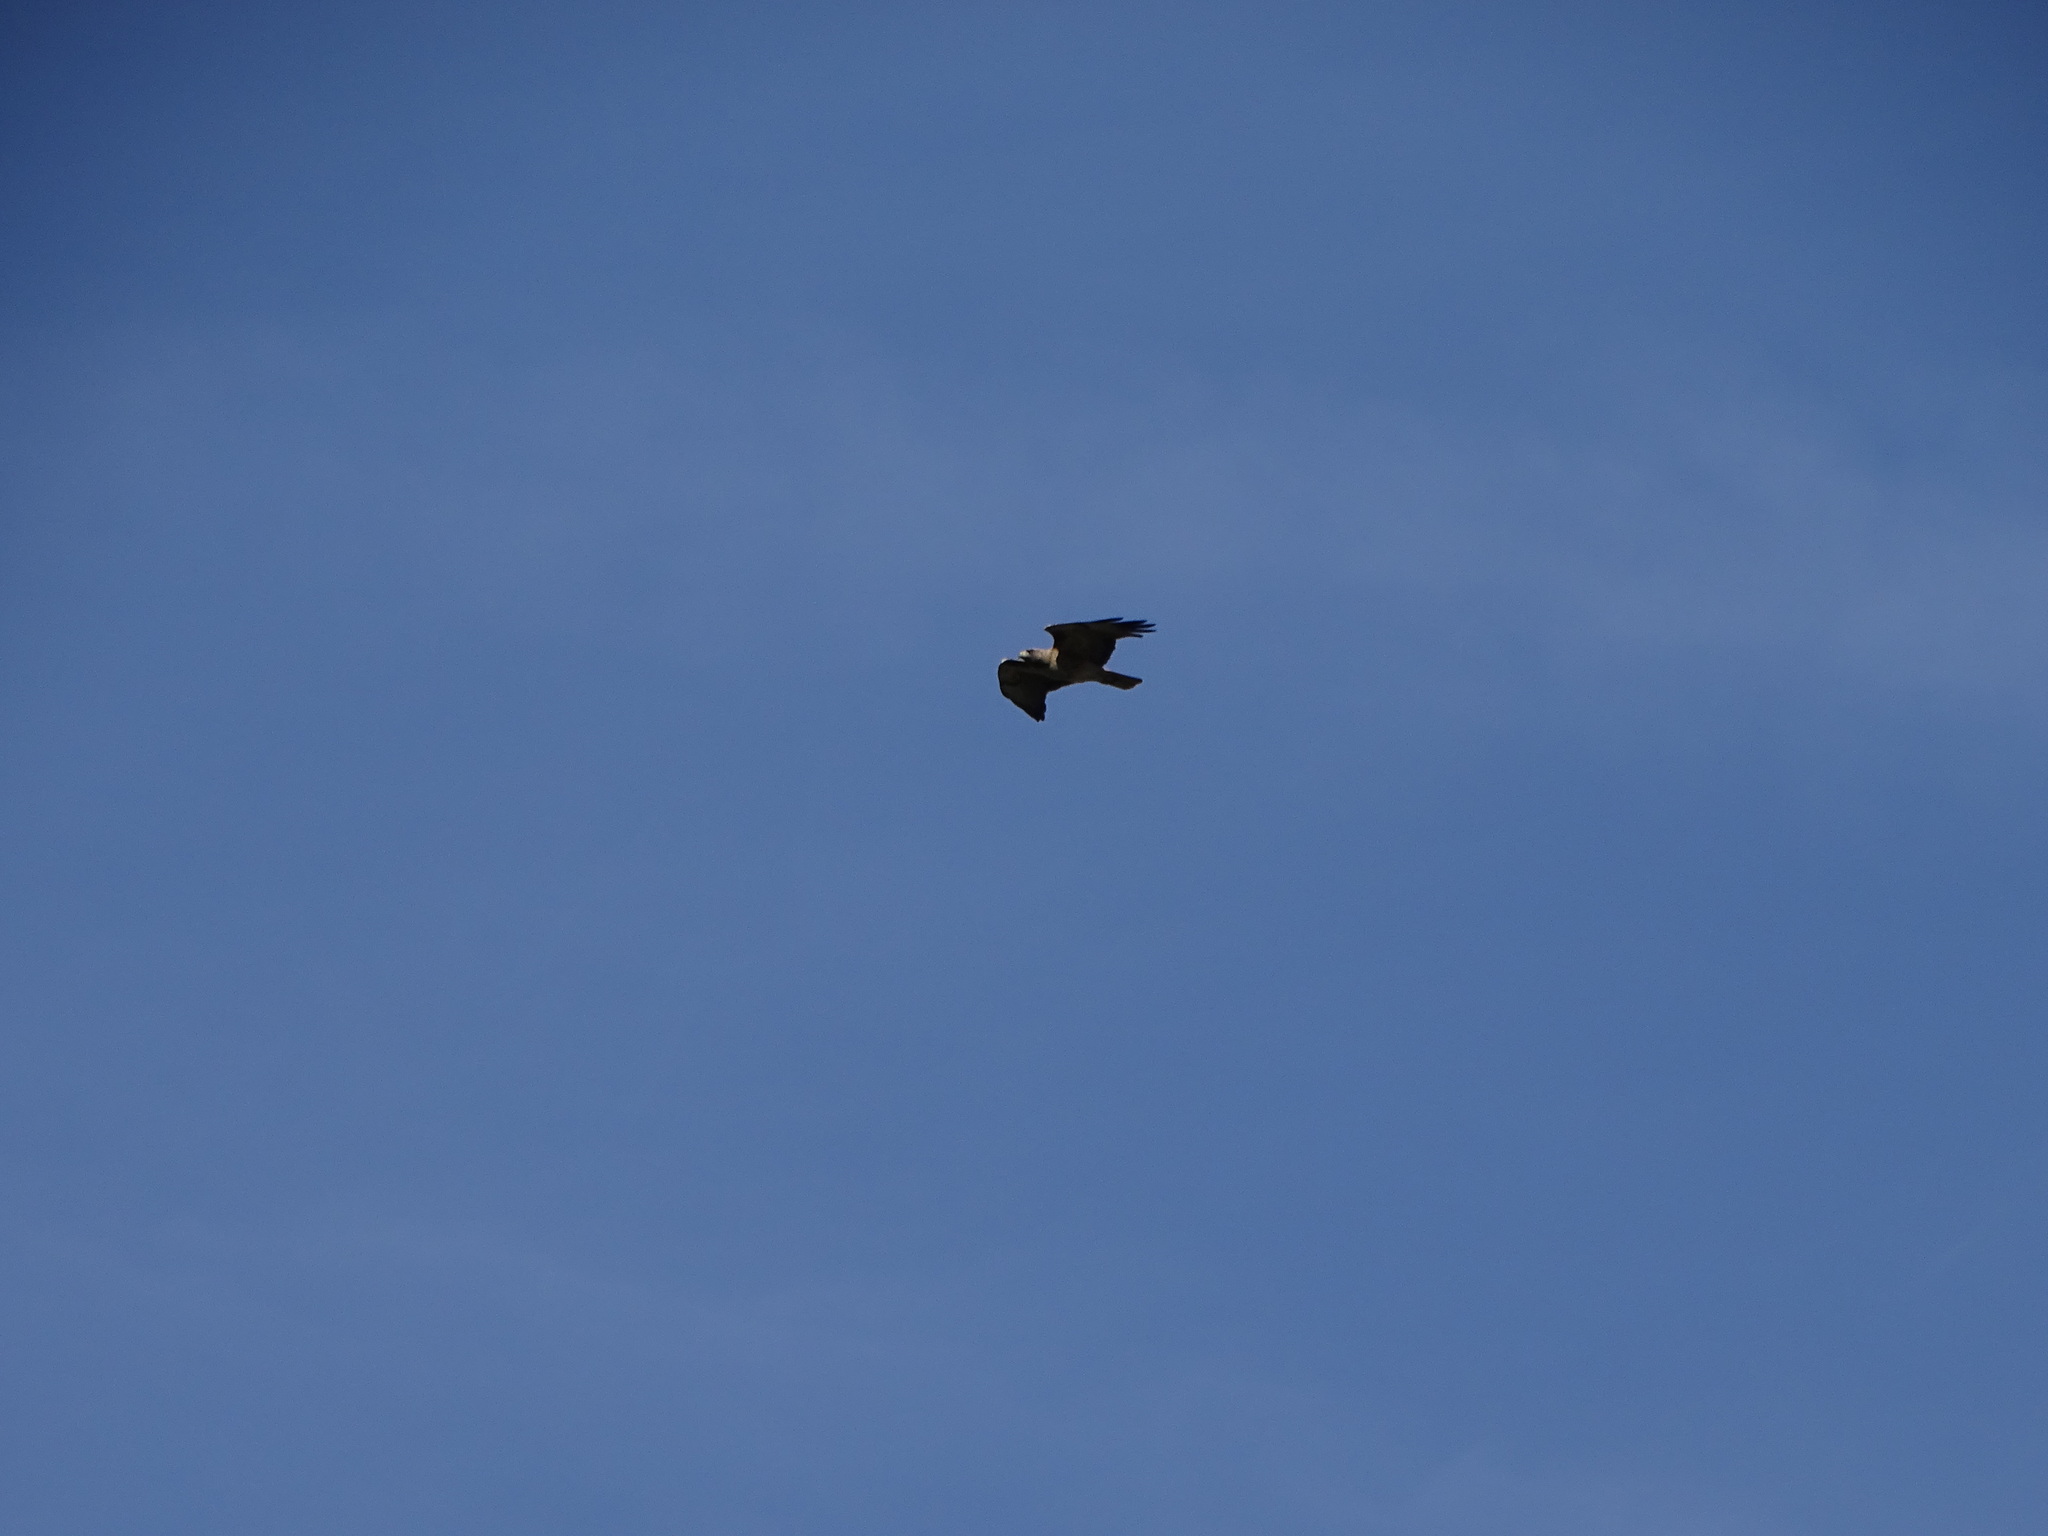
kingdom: Animalia
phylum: Chordata
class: Aves
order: Accipitriformes
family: Accipitridae
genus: Buteo
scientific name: Buteo jamaicensis
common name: Red-tailed hawk
